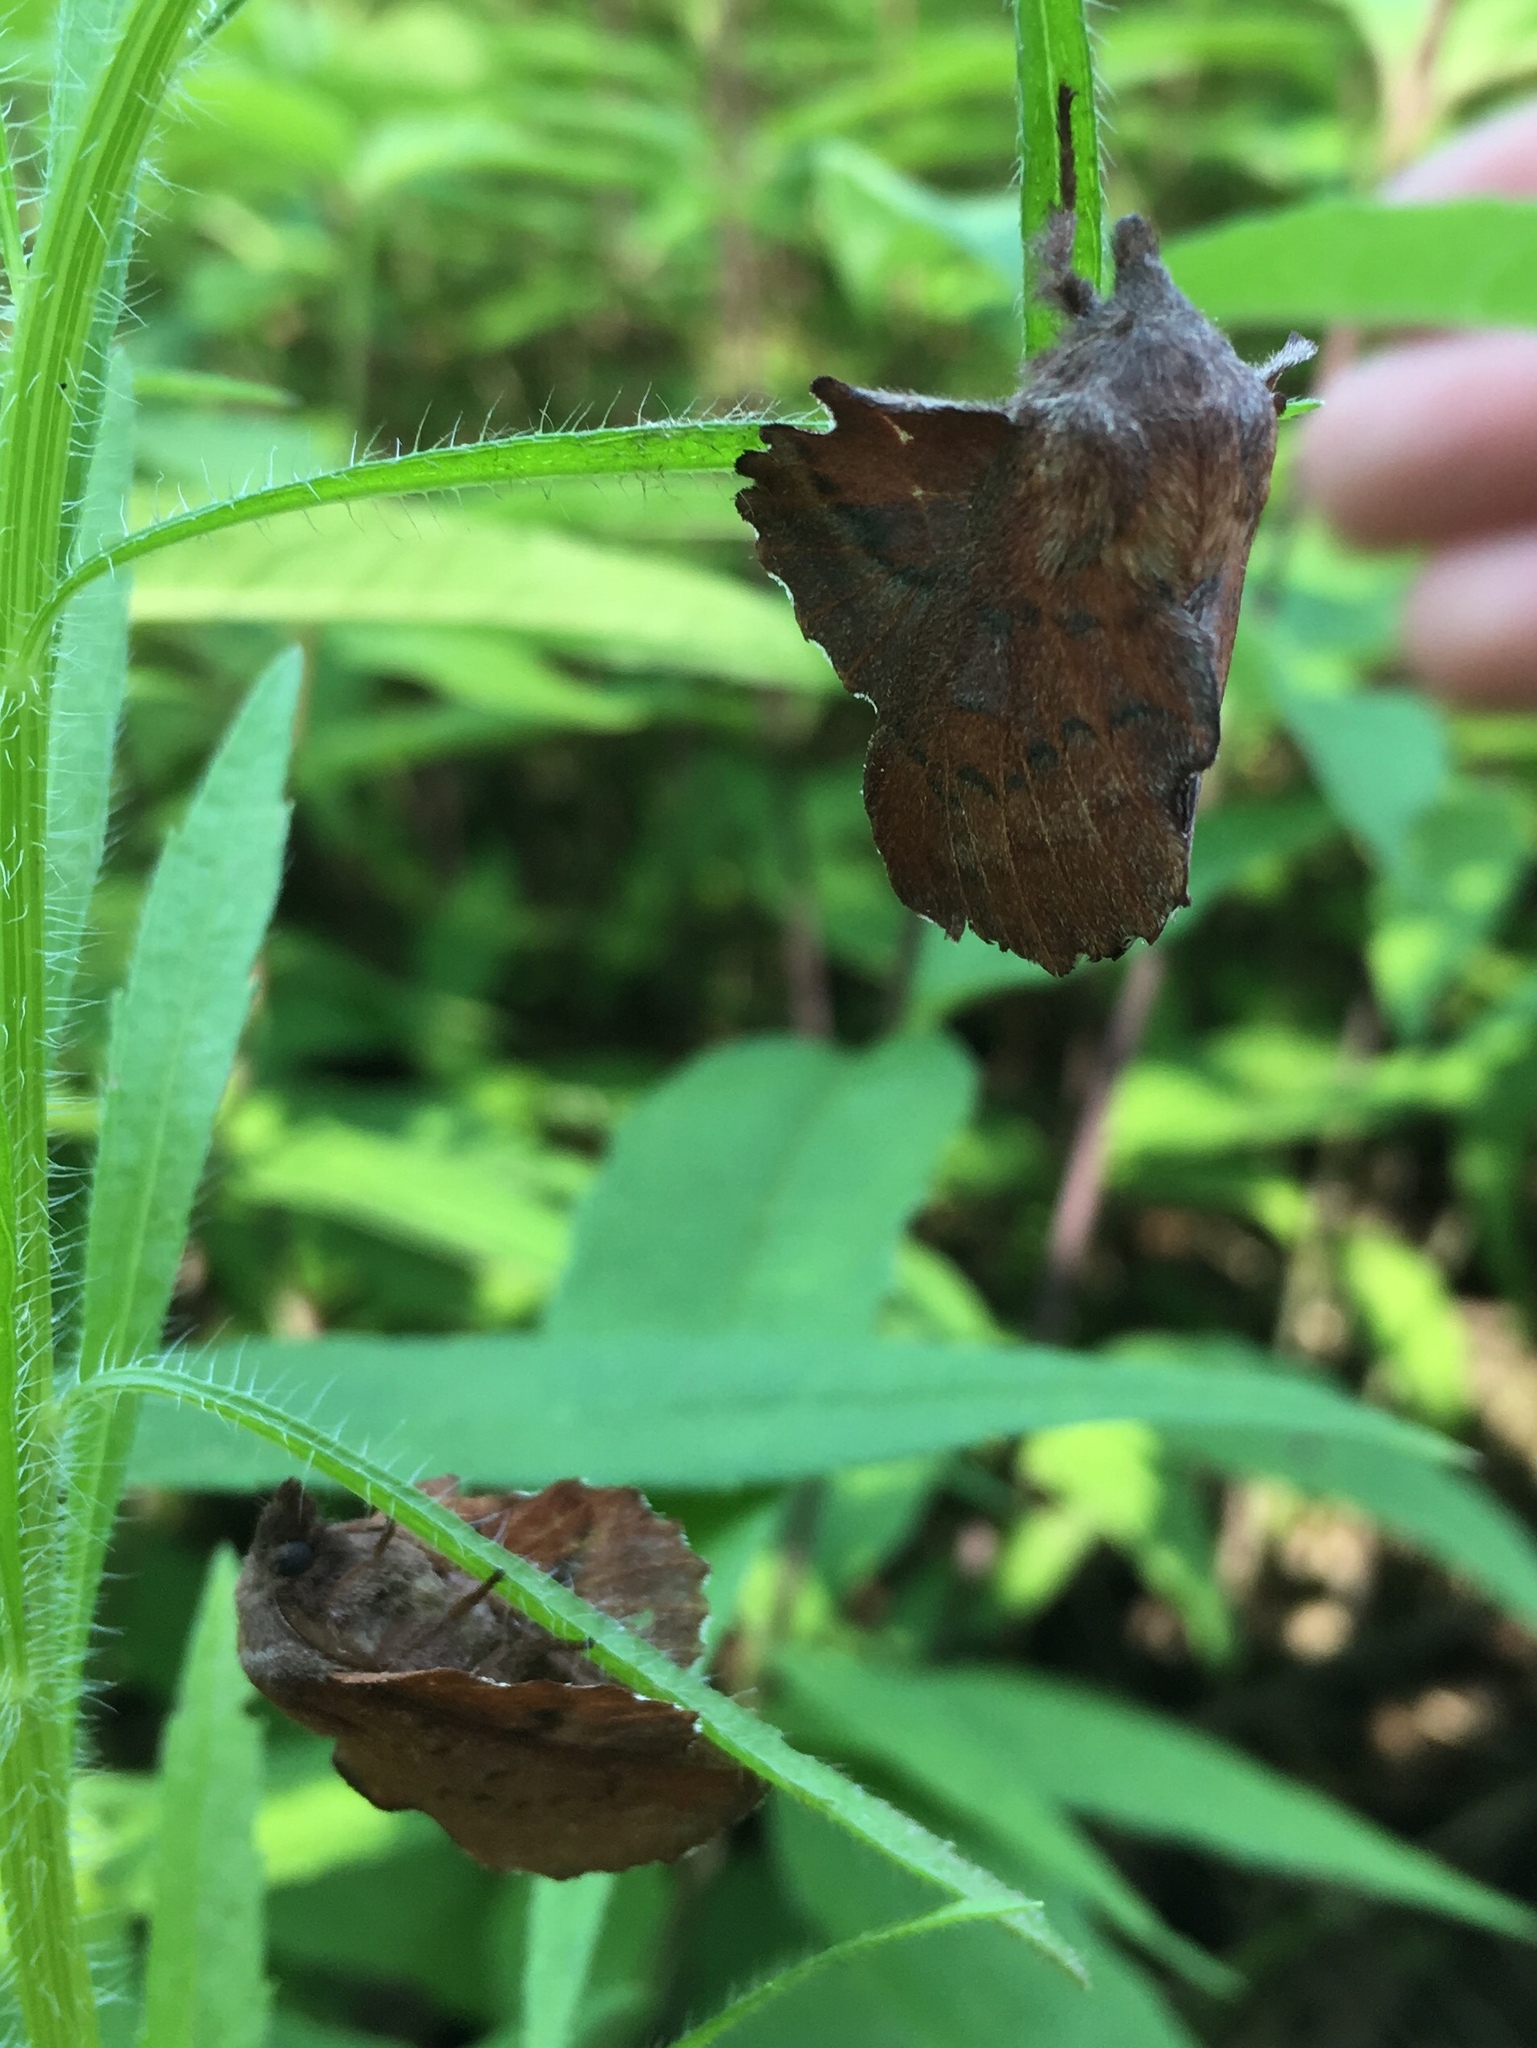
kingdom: Animalia
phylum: Arthropoda
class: Insecta
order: Lepidoptera
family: Lasiocampidae
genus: Phyllodesma
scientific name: Phyllodesma americana
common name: American lappet moth
